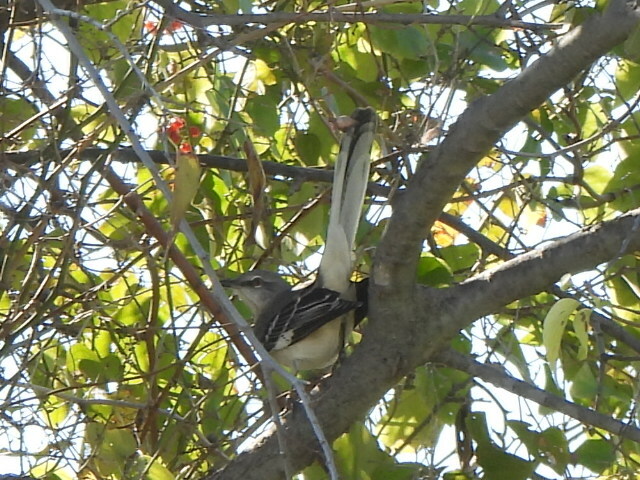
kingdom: Animalia
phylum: Chordata
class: Aves
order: Passeriformes
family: Mimidae
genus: Mimus
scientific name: Mimus polyglottos
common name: Northern mockingbird
